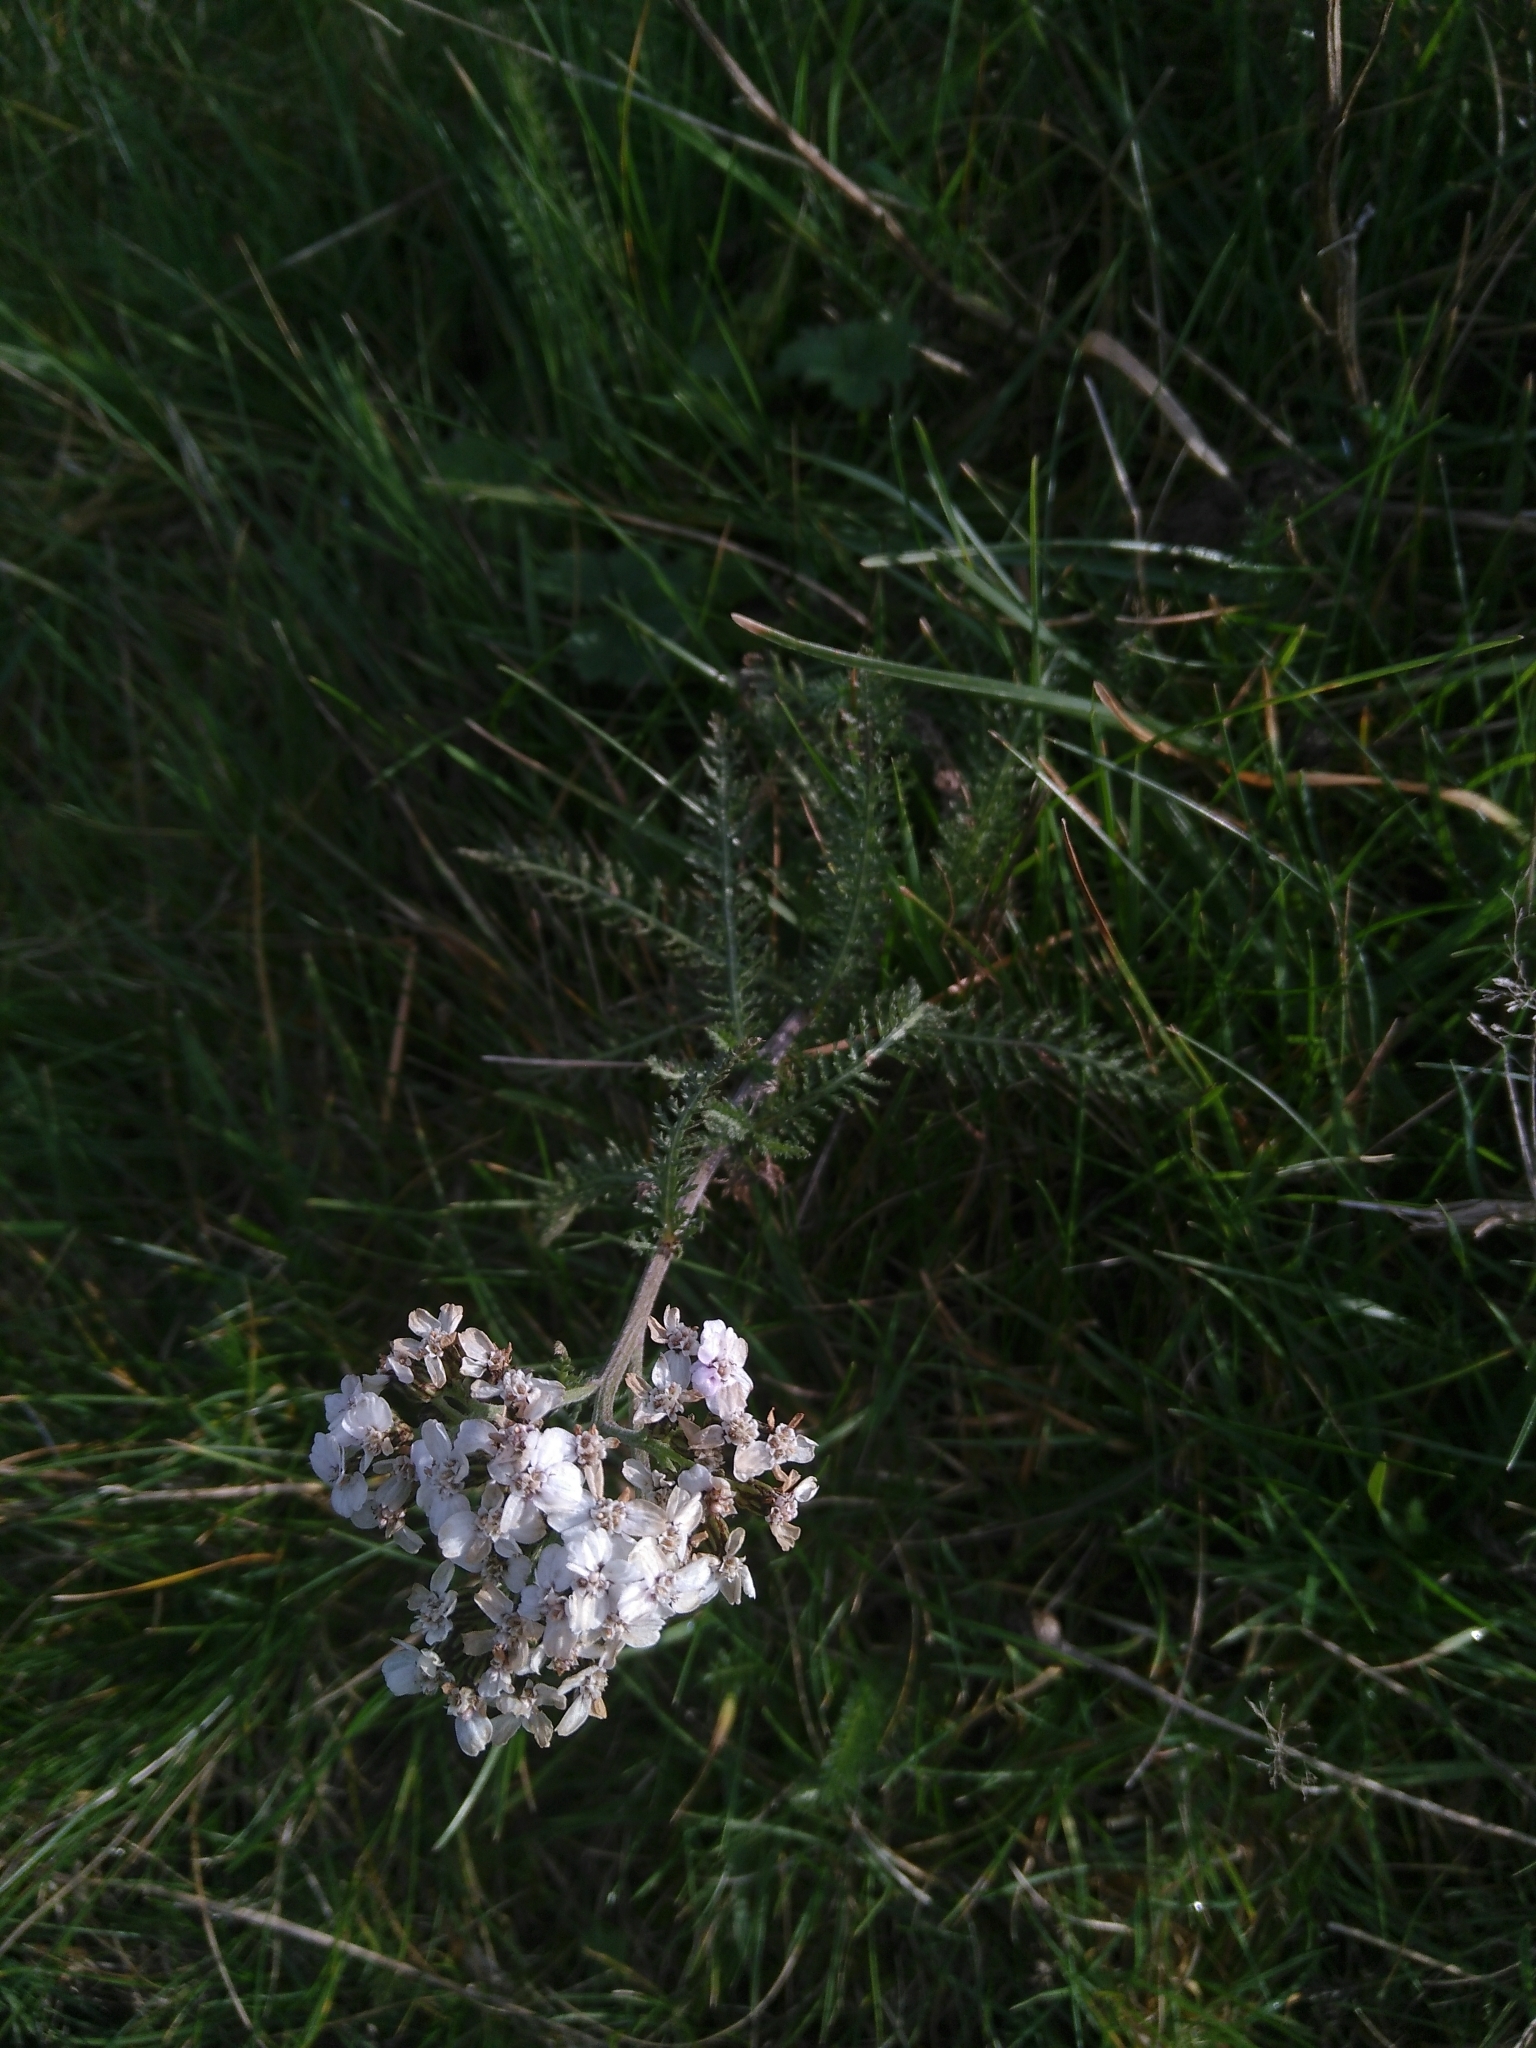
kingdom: Plantae
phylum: Tracheophyta
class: Magnoliopsida
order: Asterales
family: Asteraceae
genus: Achillea
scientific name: Achillea millefolium
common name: Yarrow
